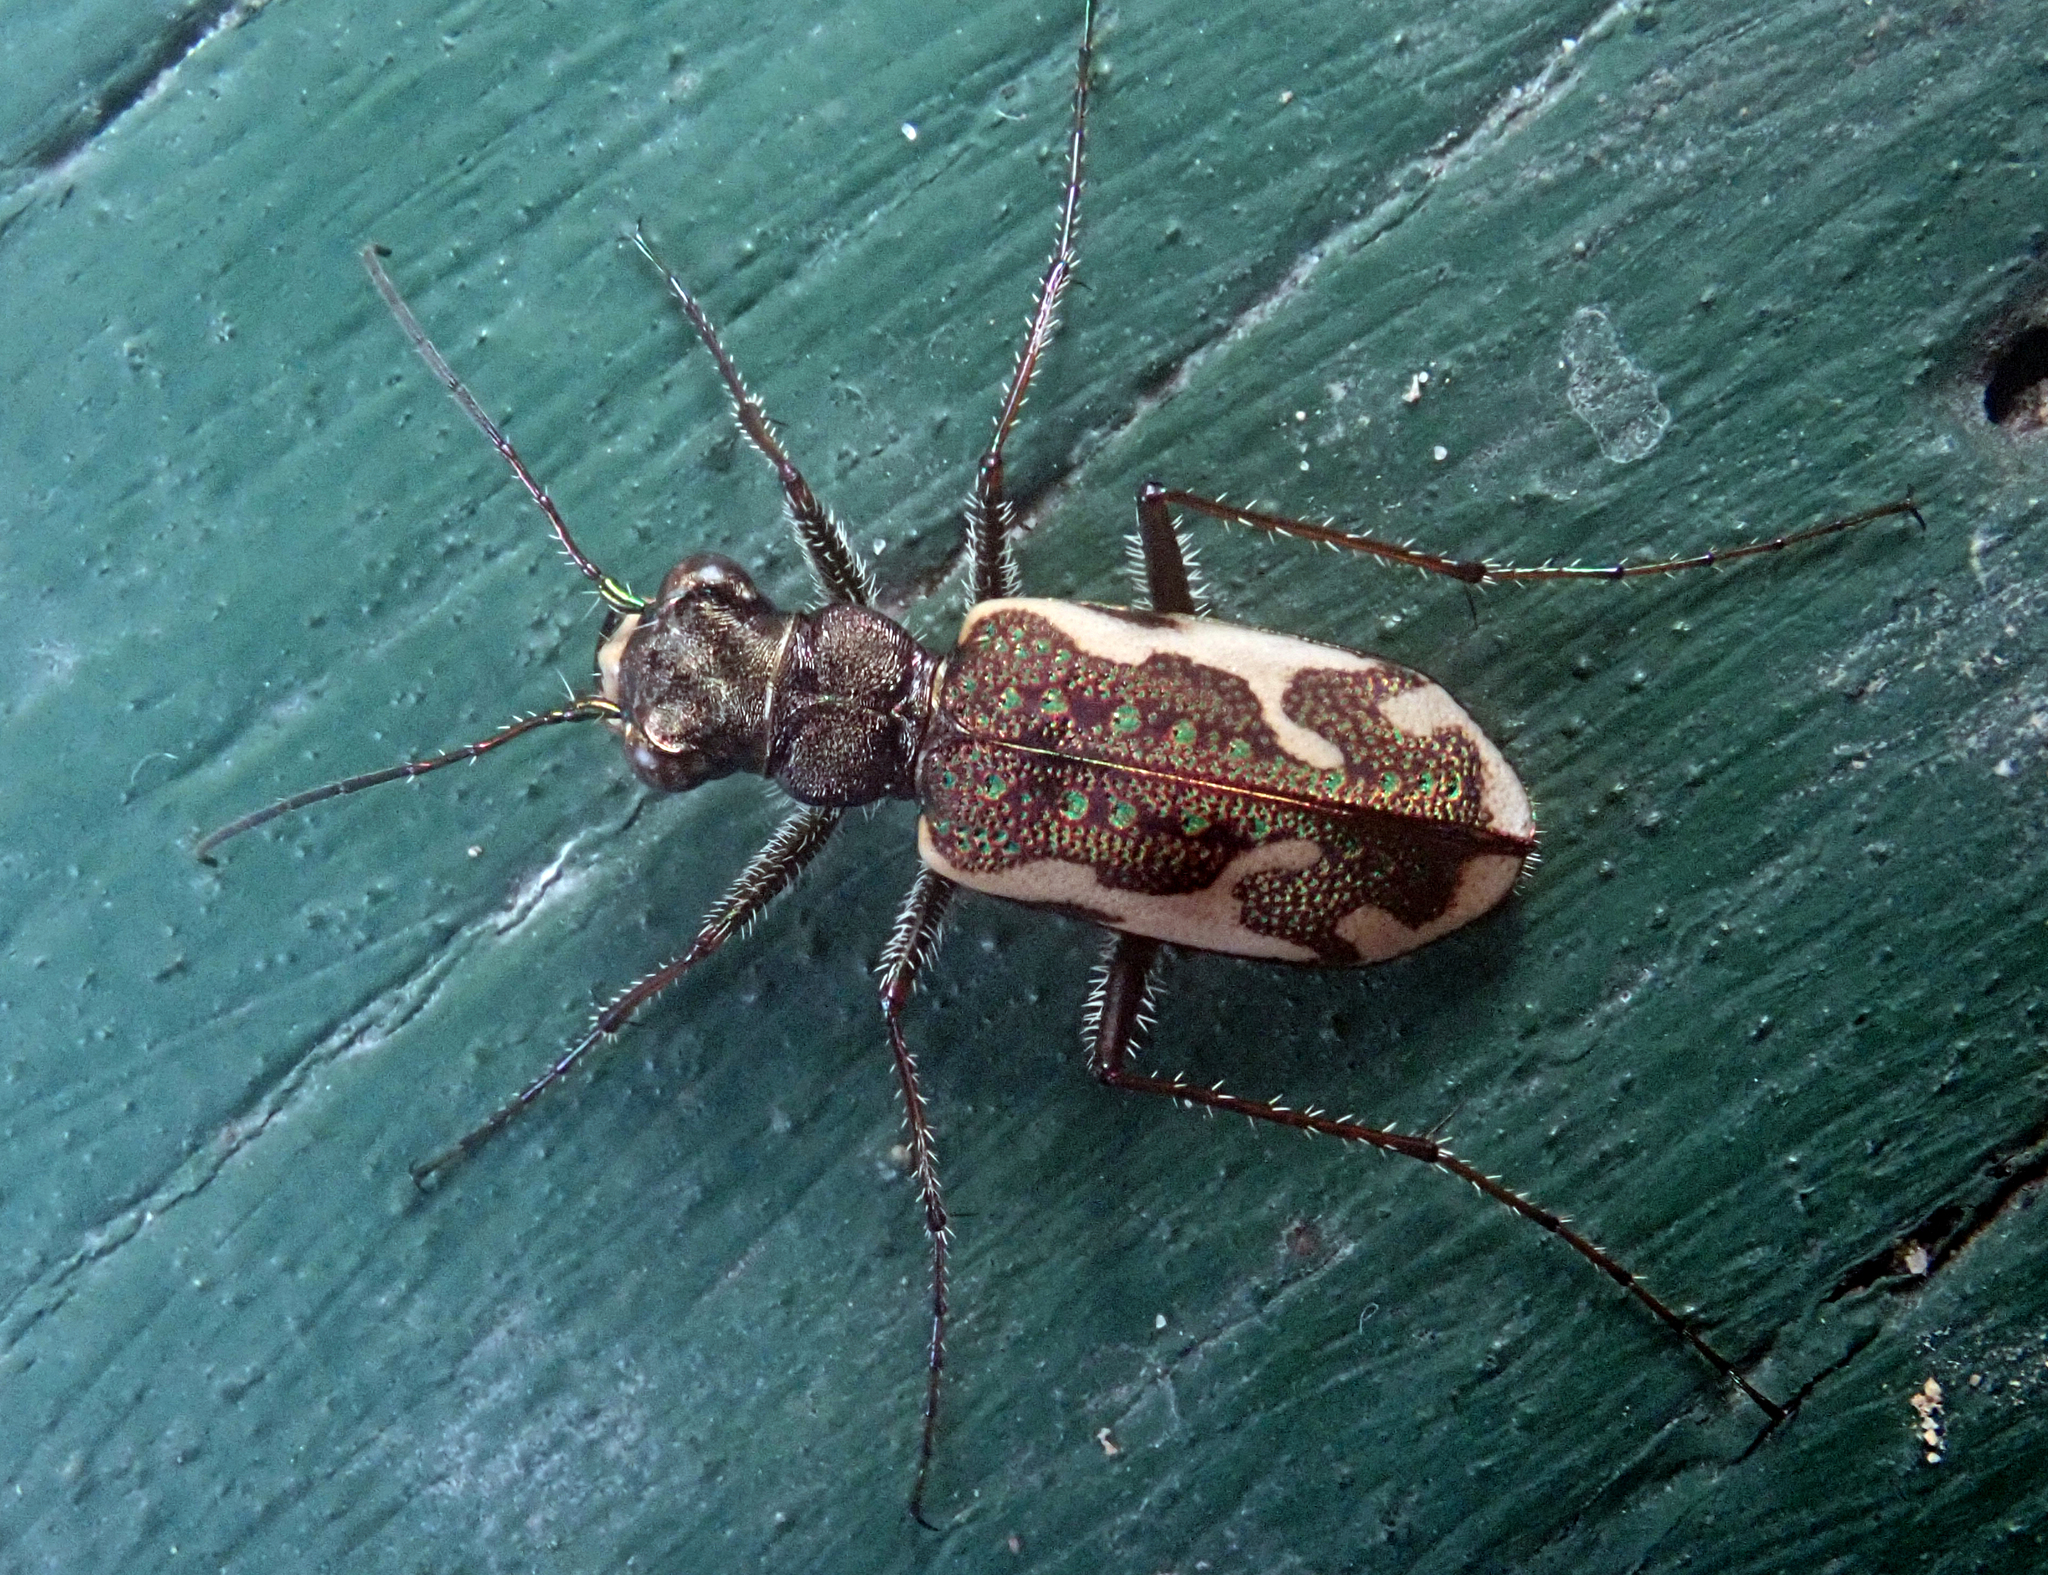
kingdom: Animalia
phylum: Arthropoda
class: Insecta
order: Coleoptera
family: Carabidae
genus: Neocicindela
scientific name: Neocicindela tuberculata
